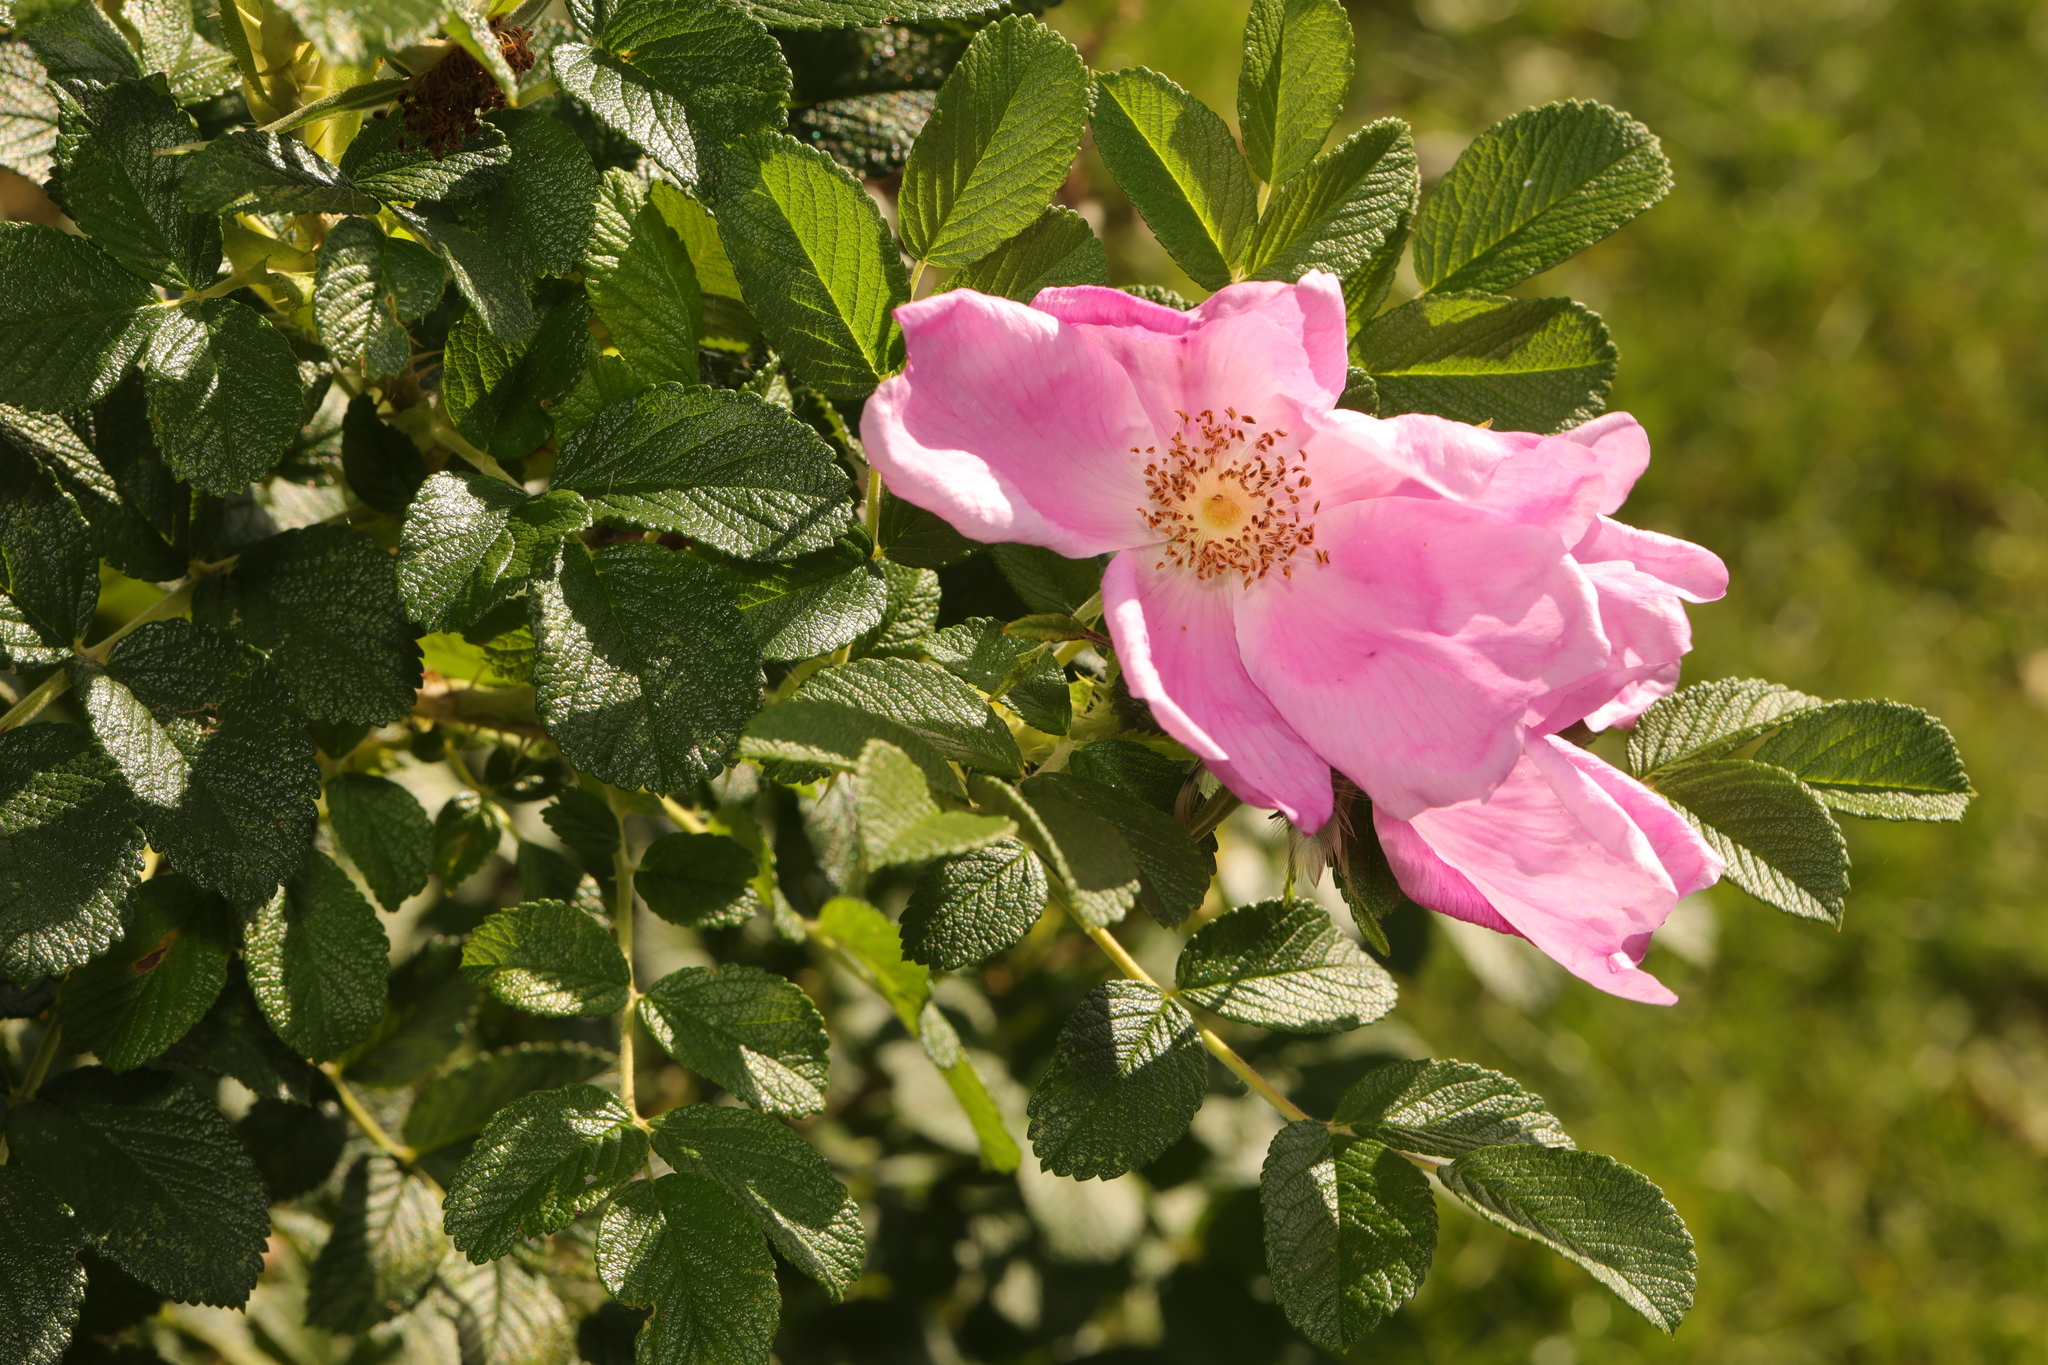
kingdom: Plantae
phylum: Tracheophyta
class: Magnoliopsida
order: Rosales
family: Rosaceae
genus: Rosa
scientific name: Rosa rugosa
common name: Japanese rose
